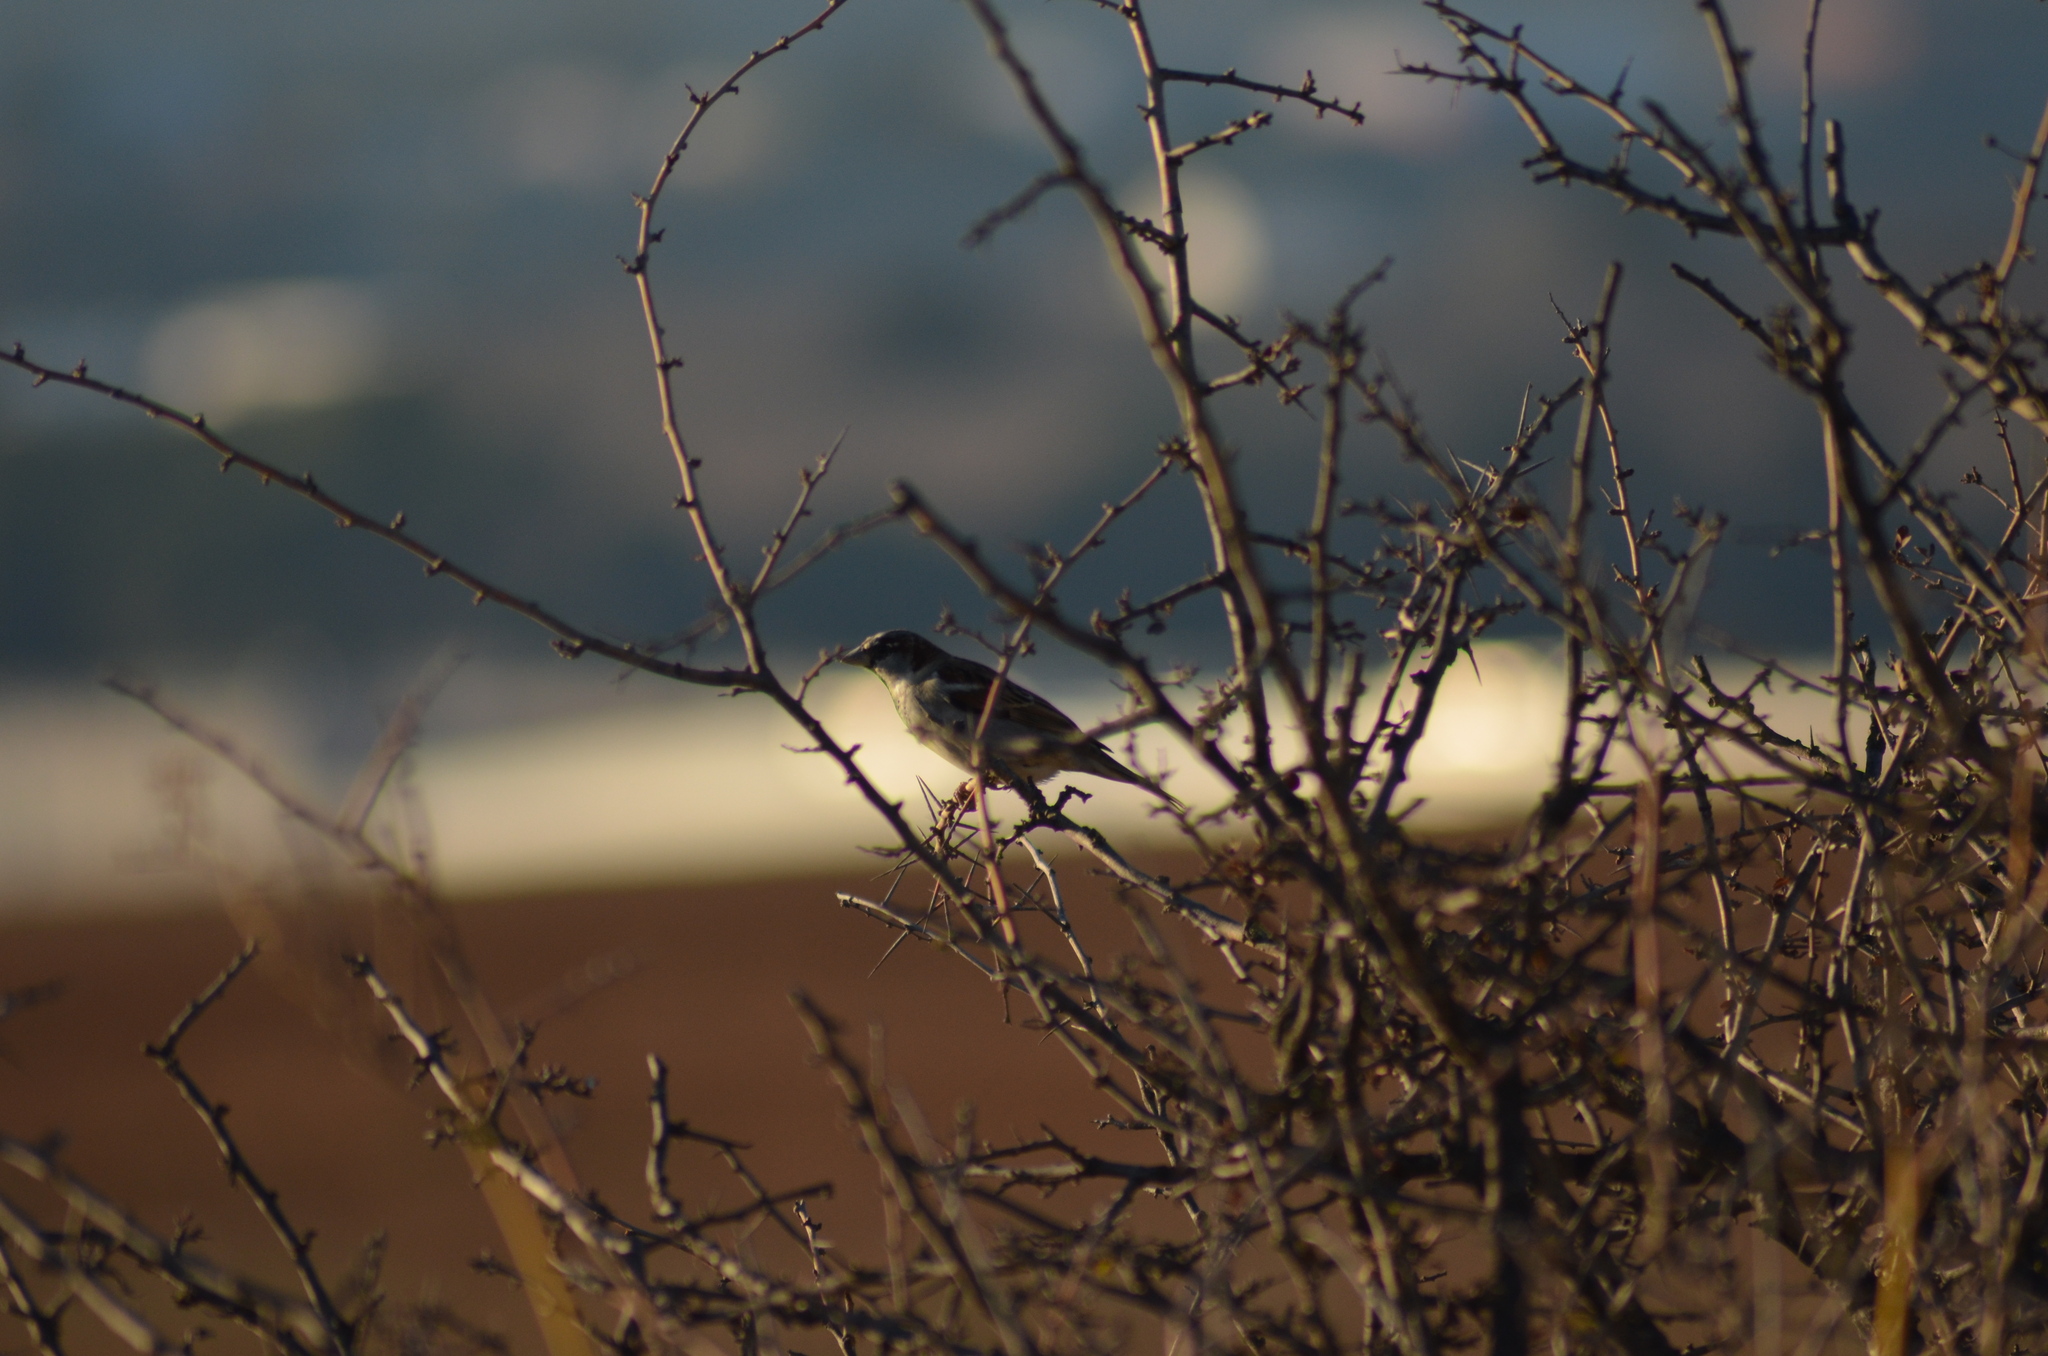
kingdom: Animalia
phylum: Chordata
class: Aves
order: Passeriformes
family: Passeridae
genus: Passer
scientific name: Passer domesticus
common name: House sparrow
